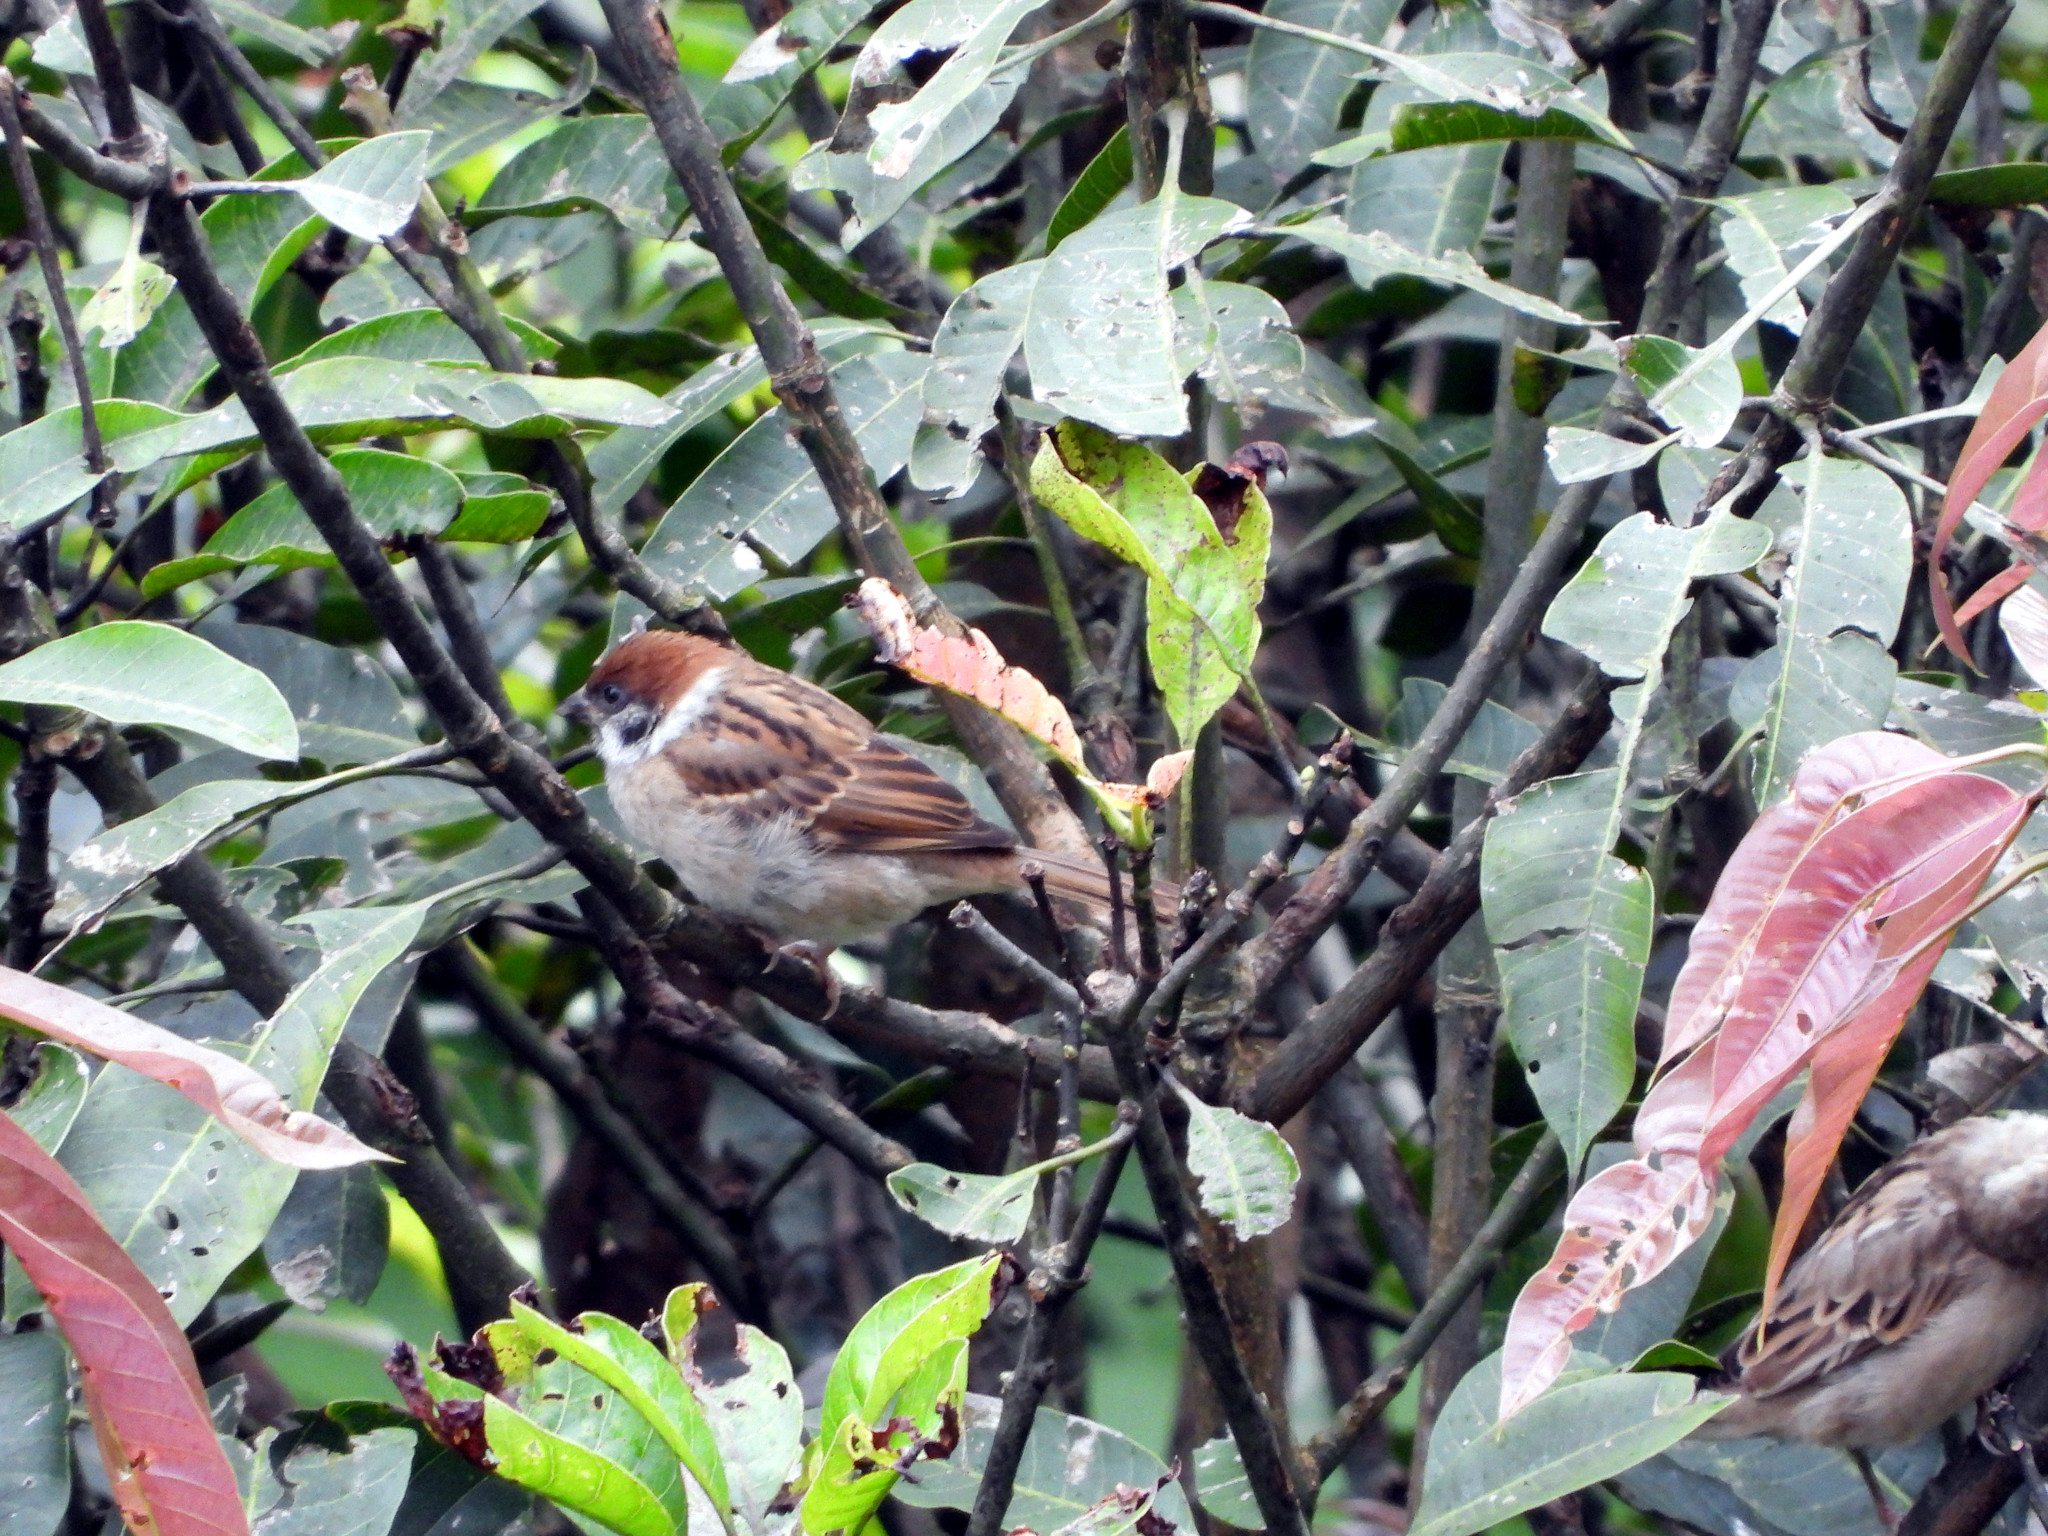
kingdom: Animalia
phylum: Chordata
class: Aves
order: Passeriformes
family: Passeridae
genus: Passer
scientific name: Passer montanus
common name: Eurasian tree sparrow
